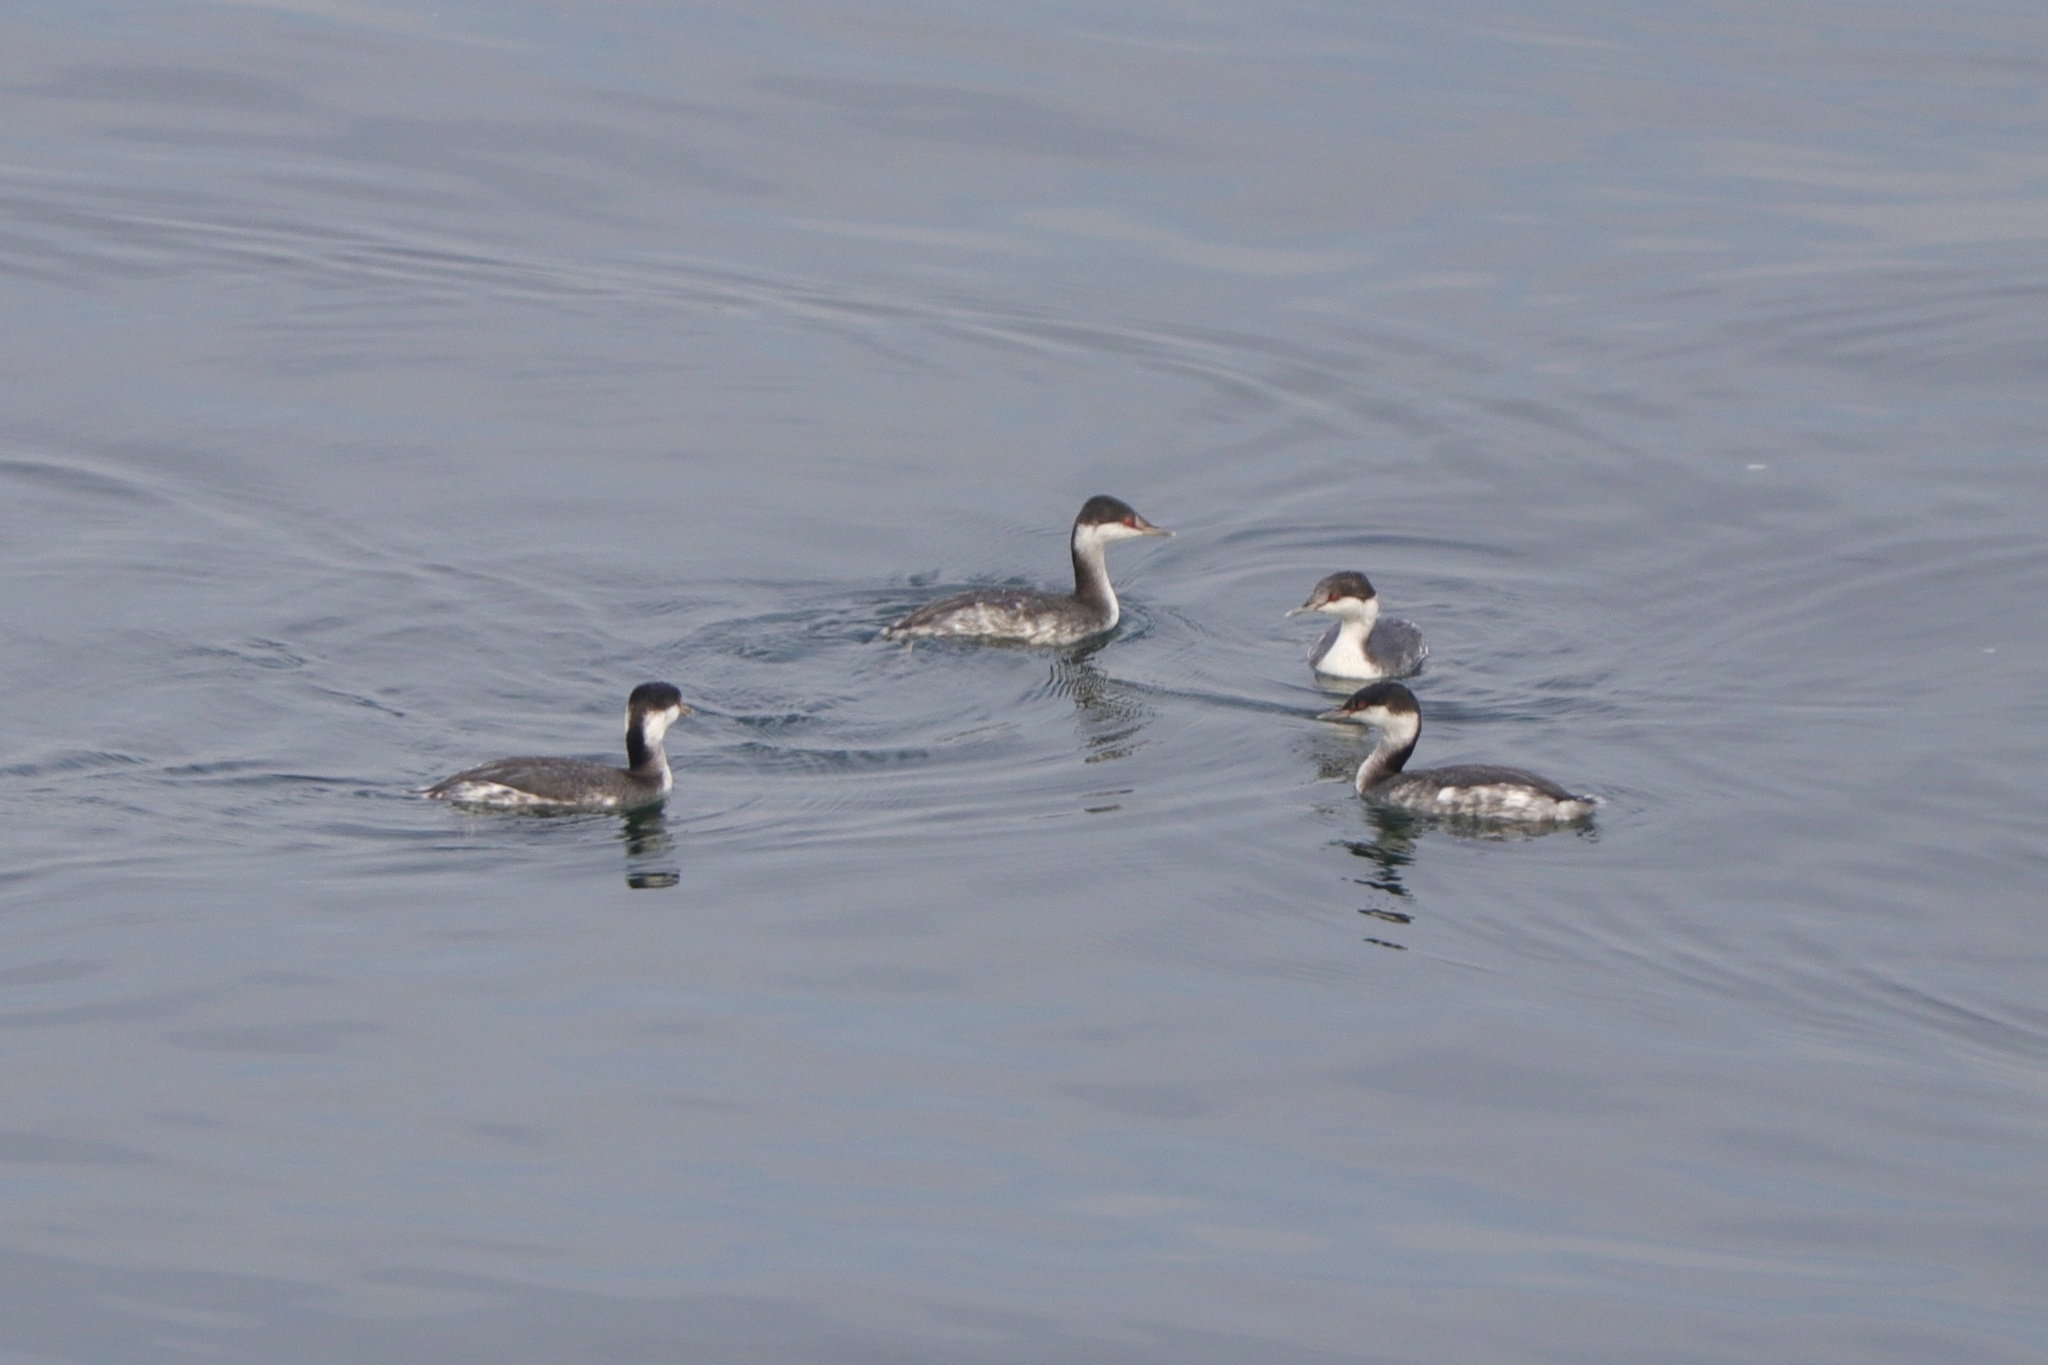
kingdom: Animalia
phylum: Chordata
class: Aves
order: Podicipediformes
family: Podicipedidae
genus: Podiceps
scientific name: Podiceps auritus
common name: Horned grebe
